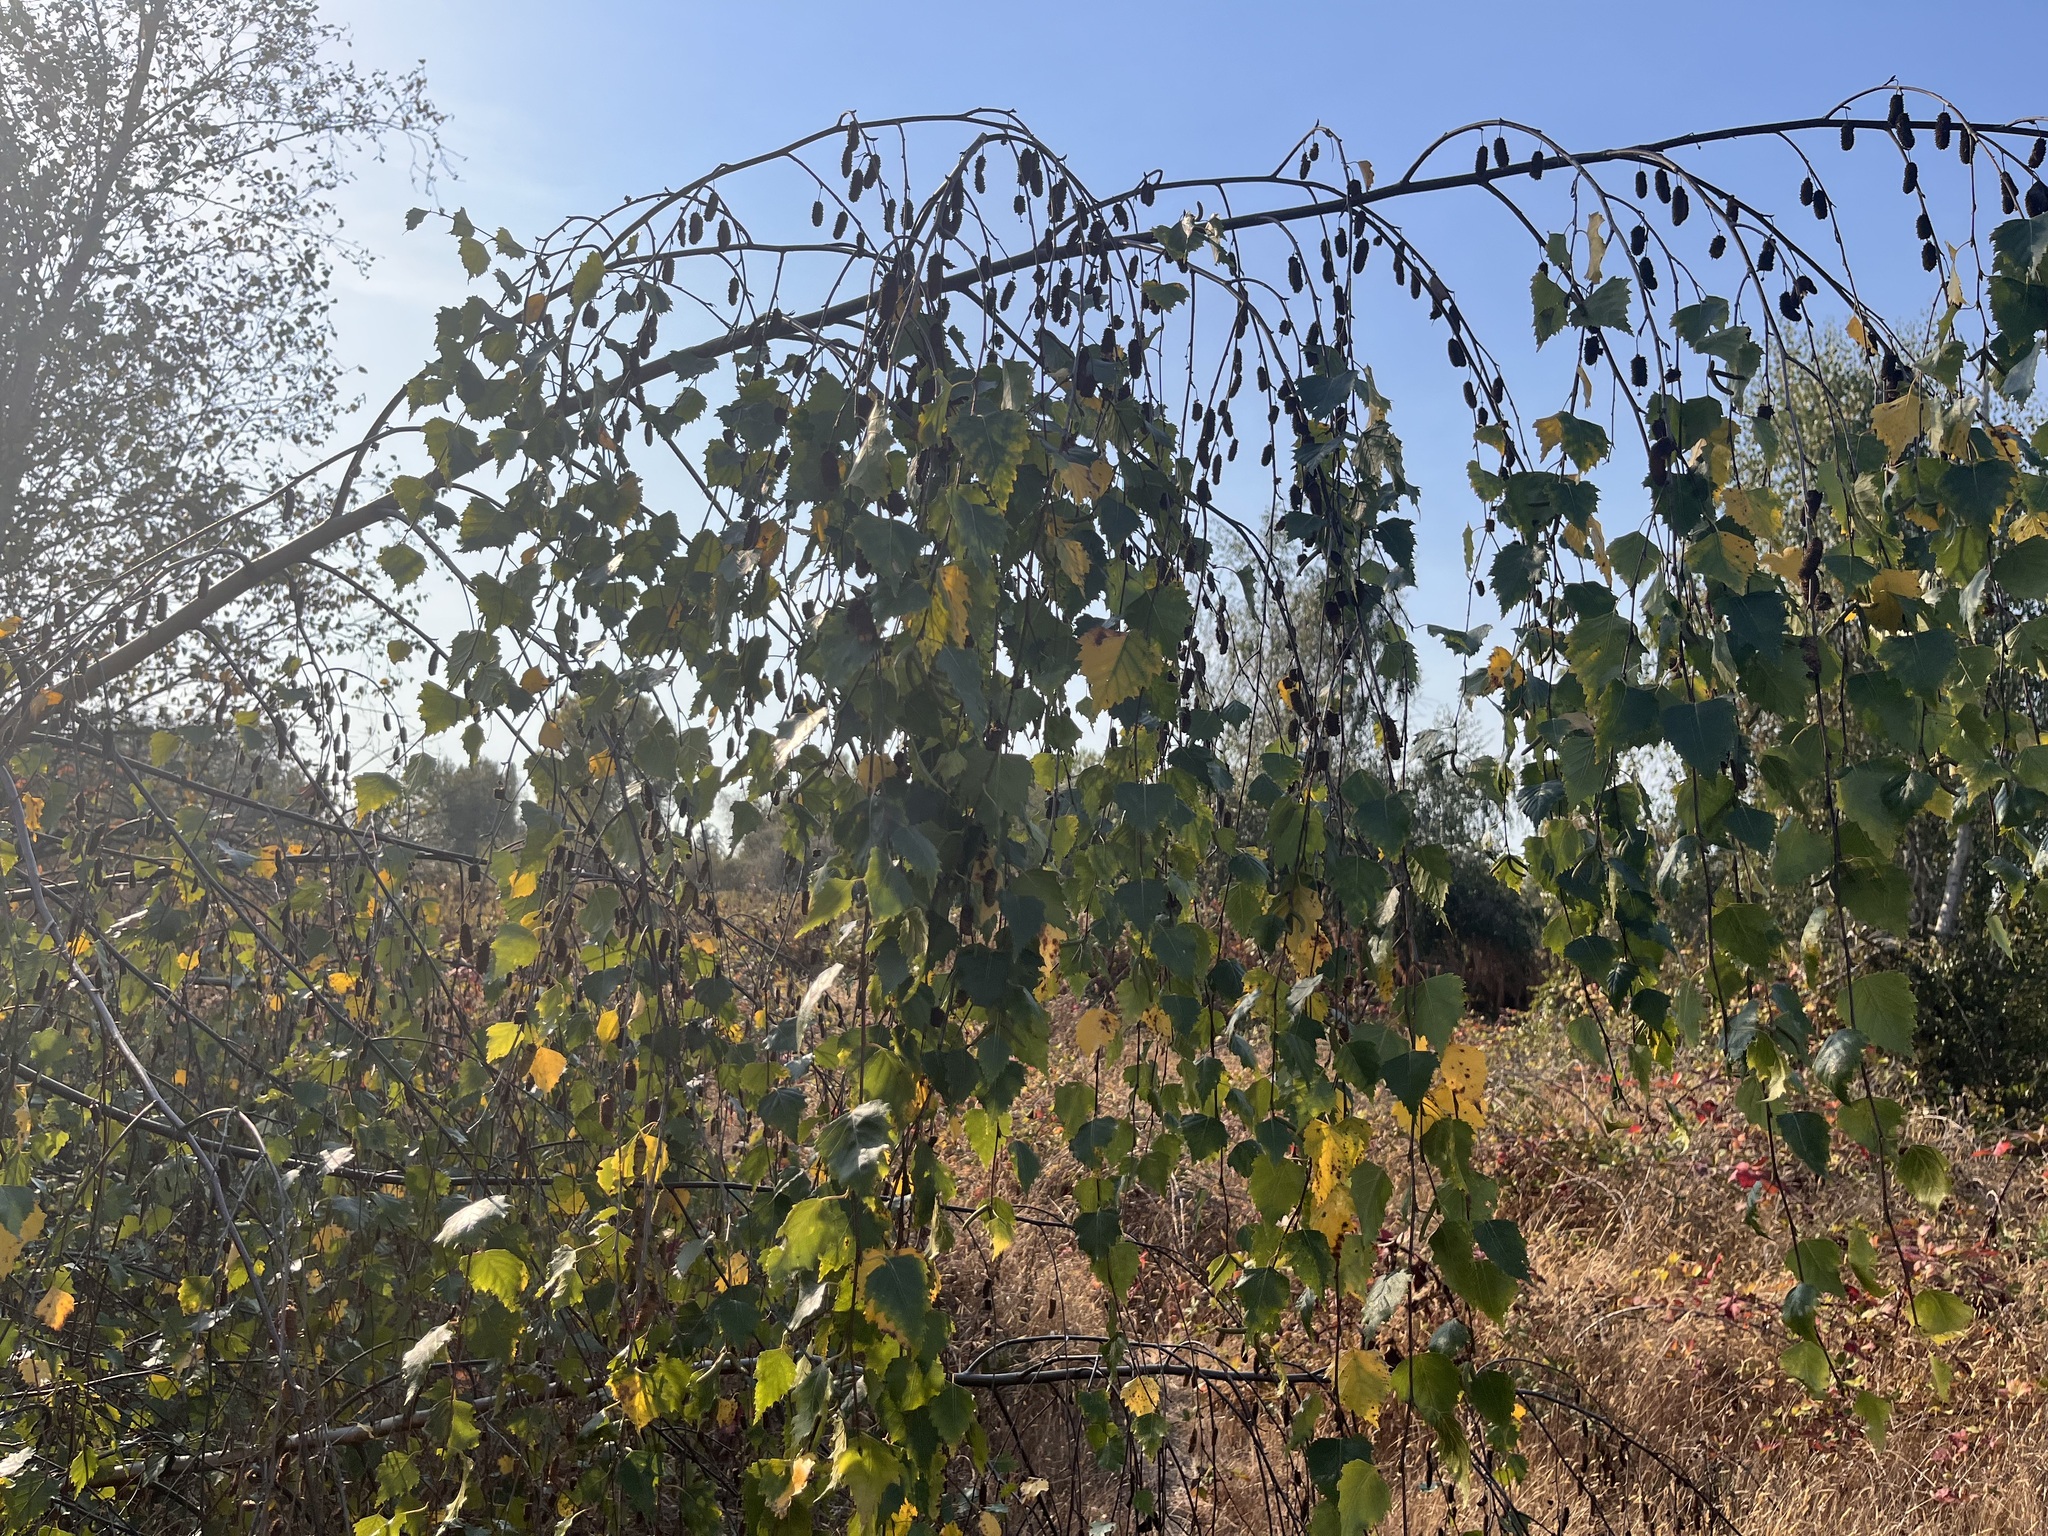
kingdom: Plantae
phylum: Tracheophyta
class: Magnoliopsida
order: Fagales
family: Betulaceae
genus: Betula
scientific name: Betula pendula
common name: Silver birch
